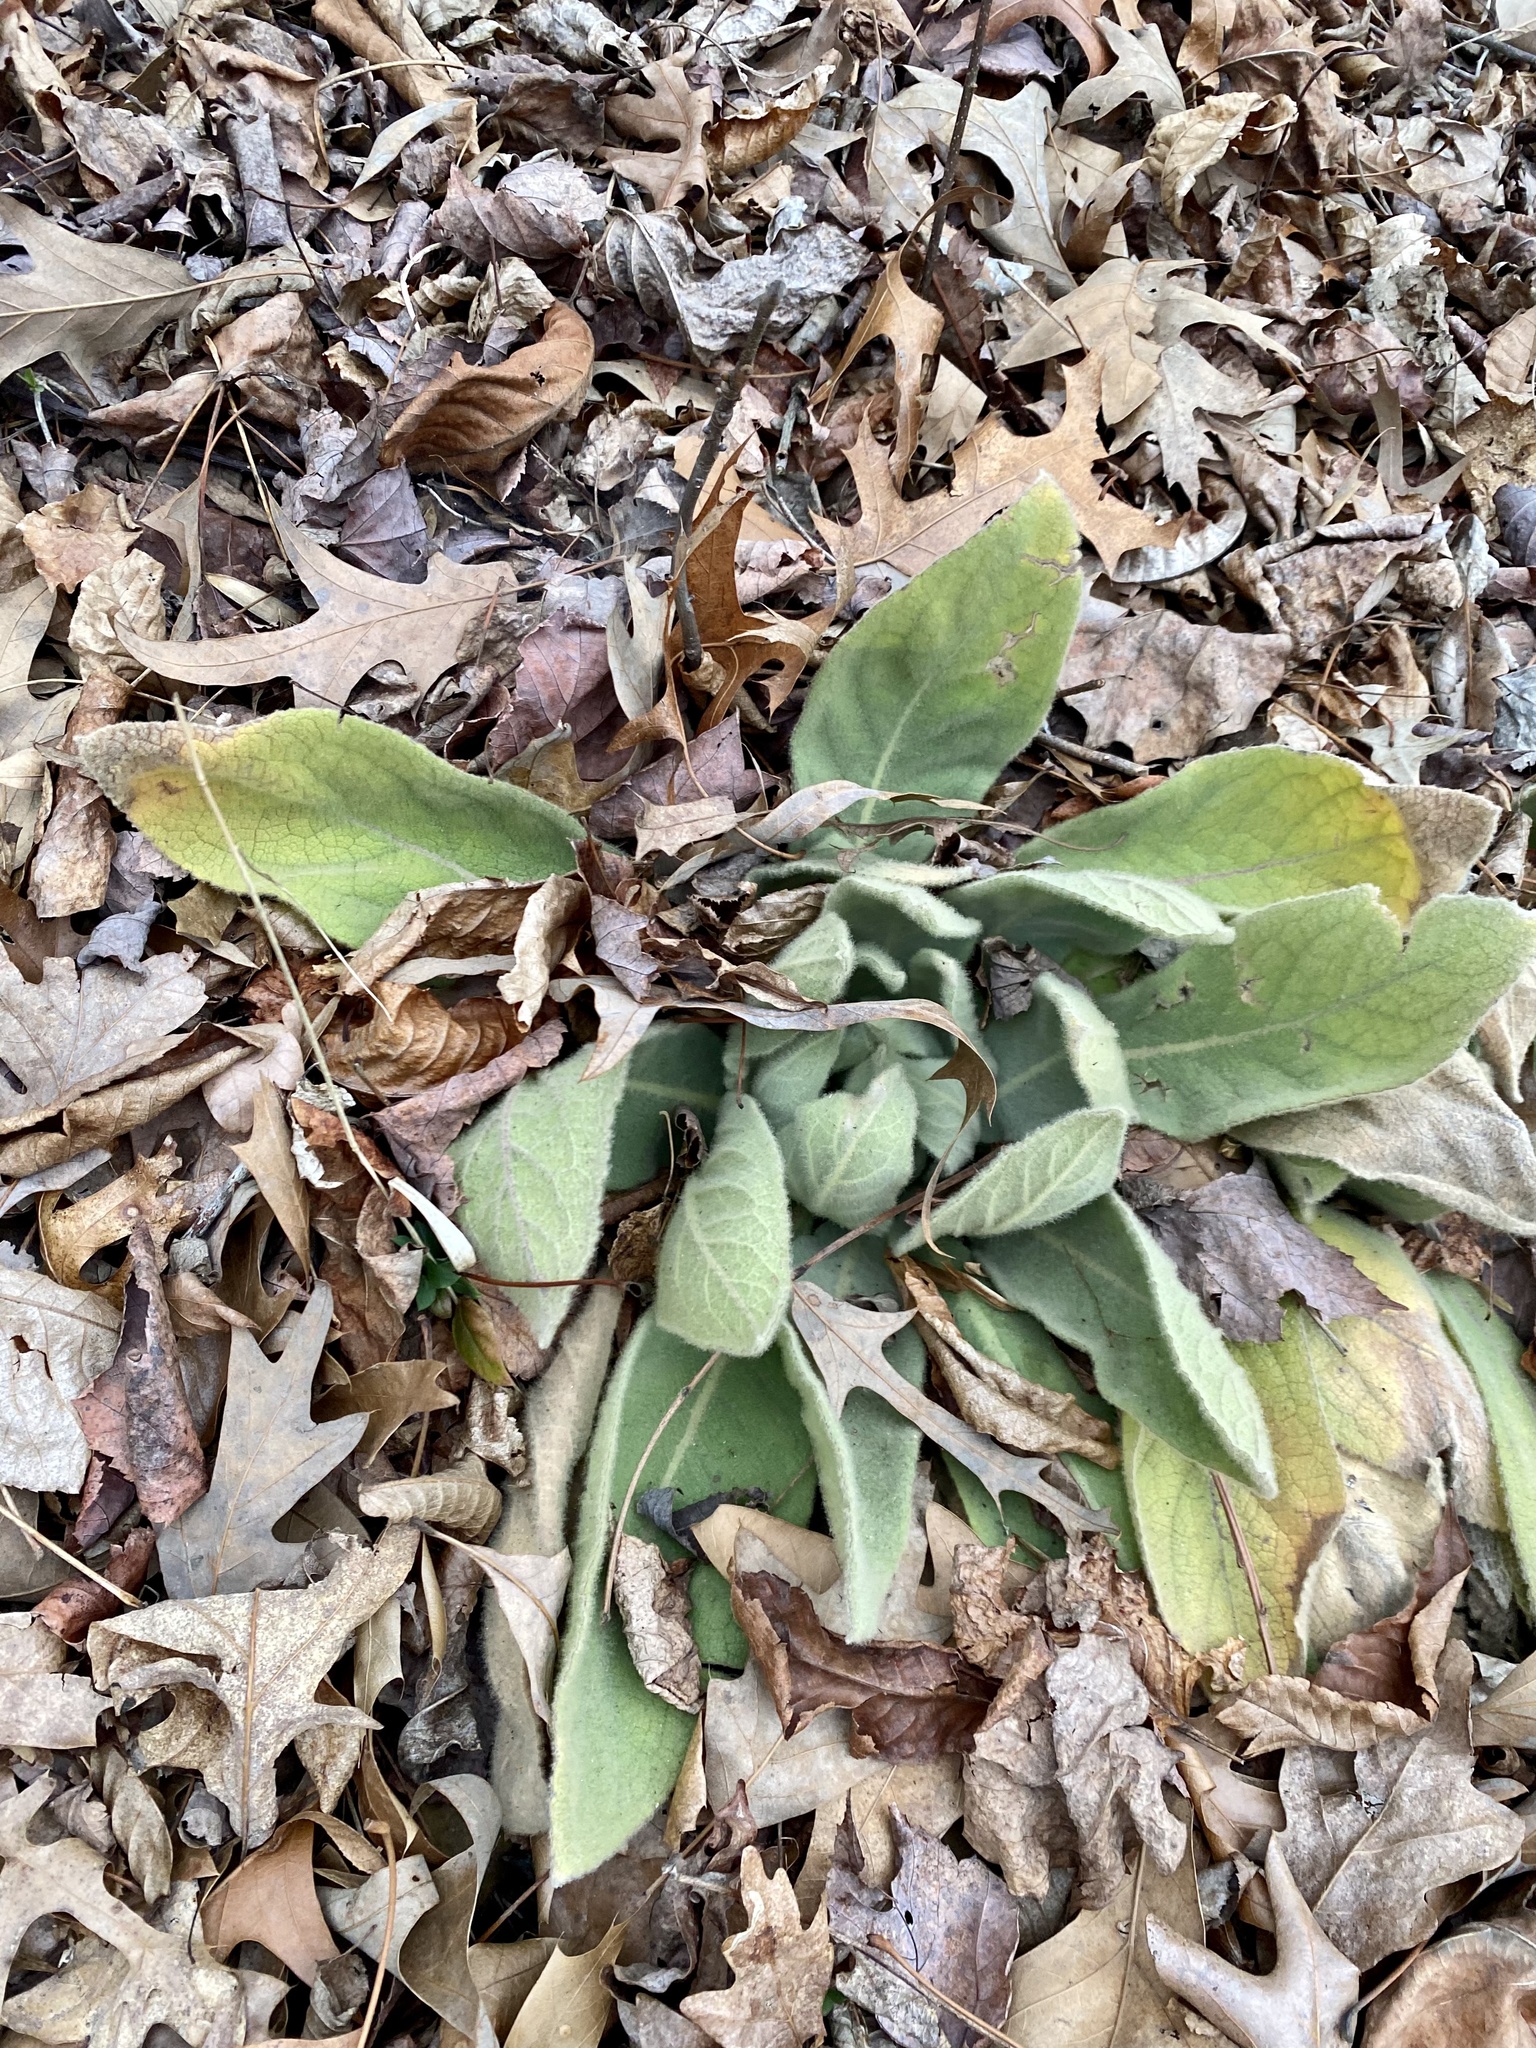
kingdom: Plantae
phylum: Tracheophyta
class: Magnoliopsida
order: Lamiales
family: Scrophulariaceae
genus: Verbascum
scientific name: Verbascum thapsus
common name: Common mullein
